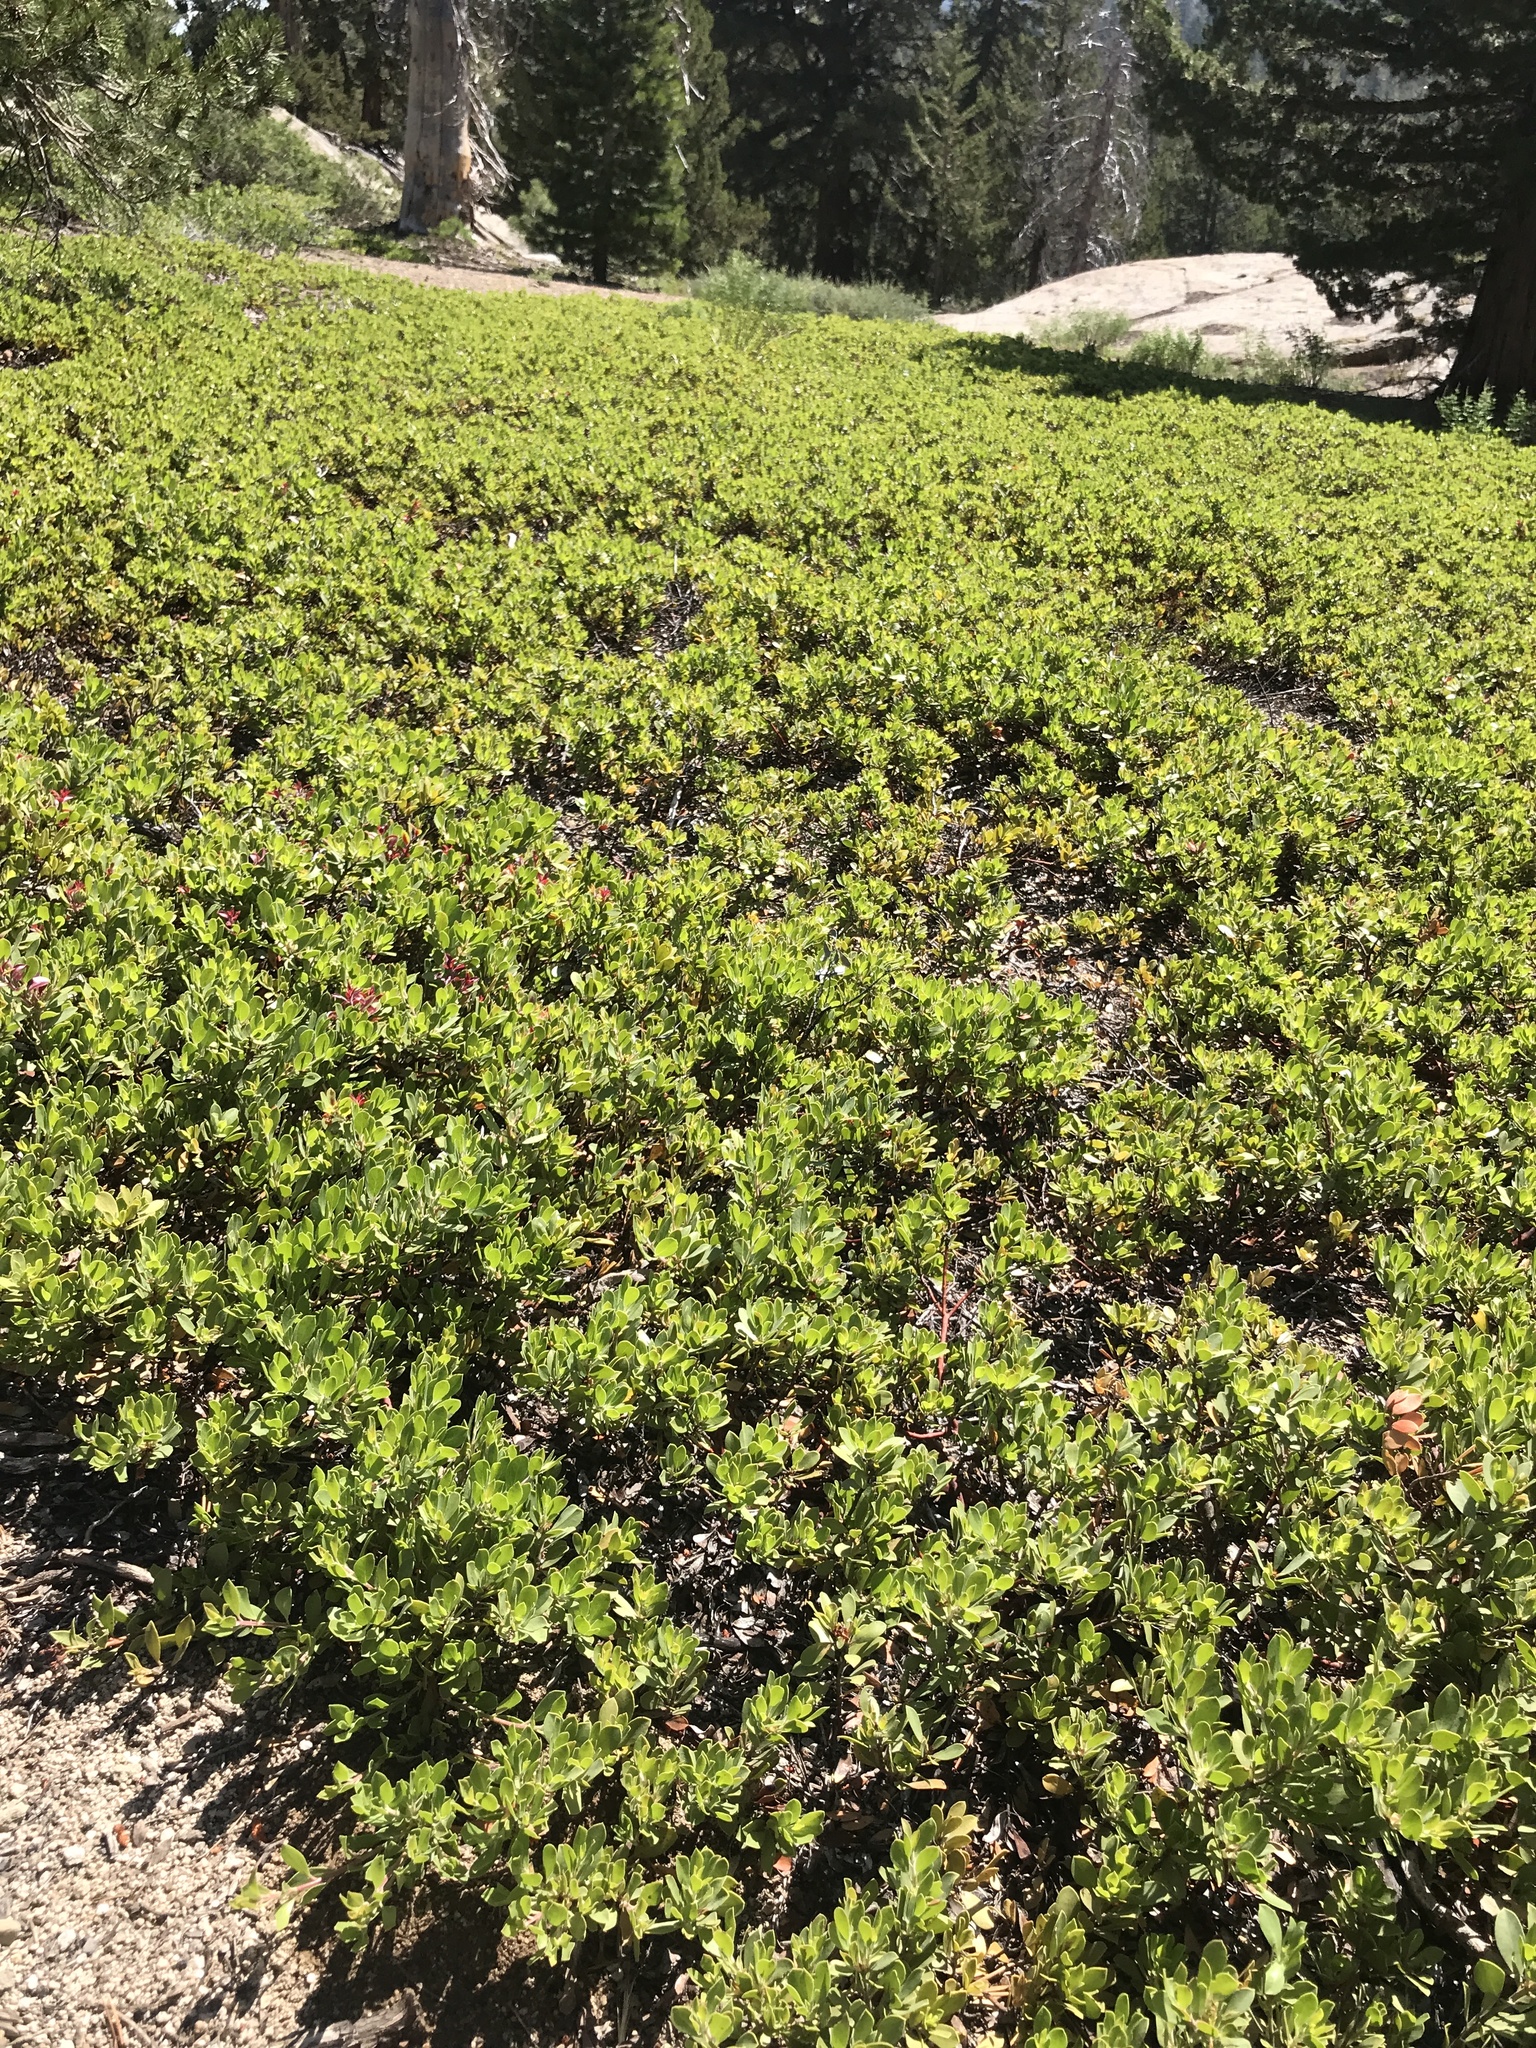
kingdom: Plantae
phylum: Tracheophyta
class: Magnoliopsida
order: Ericales
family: Ericaceae
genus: Arctostaphylos
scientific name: Arctostaphylos nevadensis
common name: Pinemat manzanita
